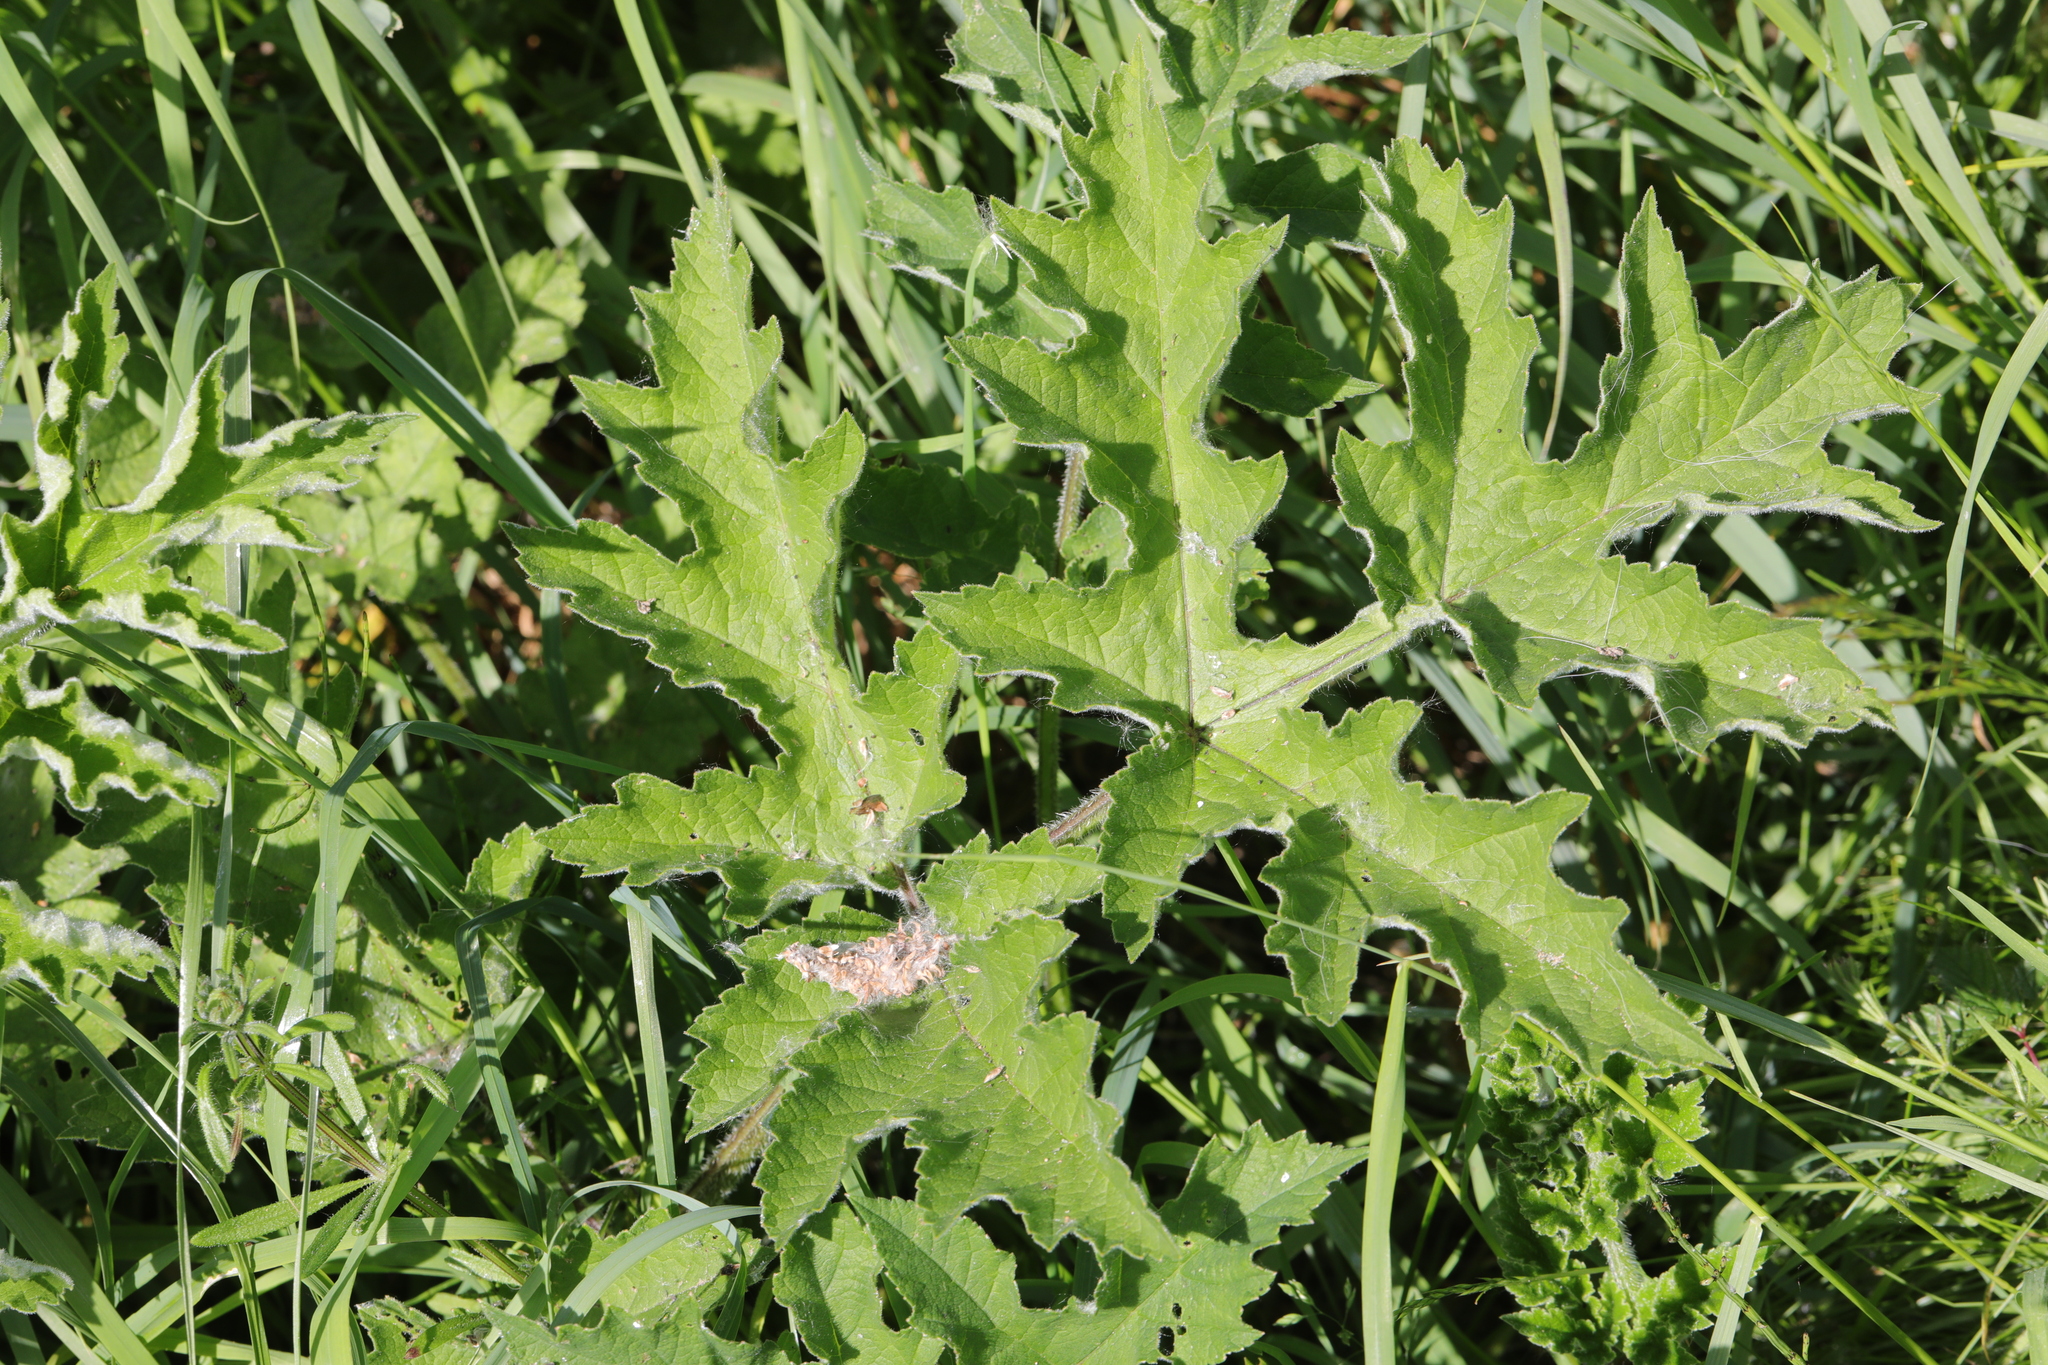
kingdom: Plantae
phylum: Tracheophyta
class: Magnoliopsida
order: Apiales
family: Apiaceae
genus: Heracleum
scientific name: Heracleum sphondylium
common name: Hogweed
